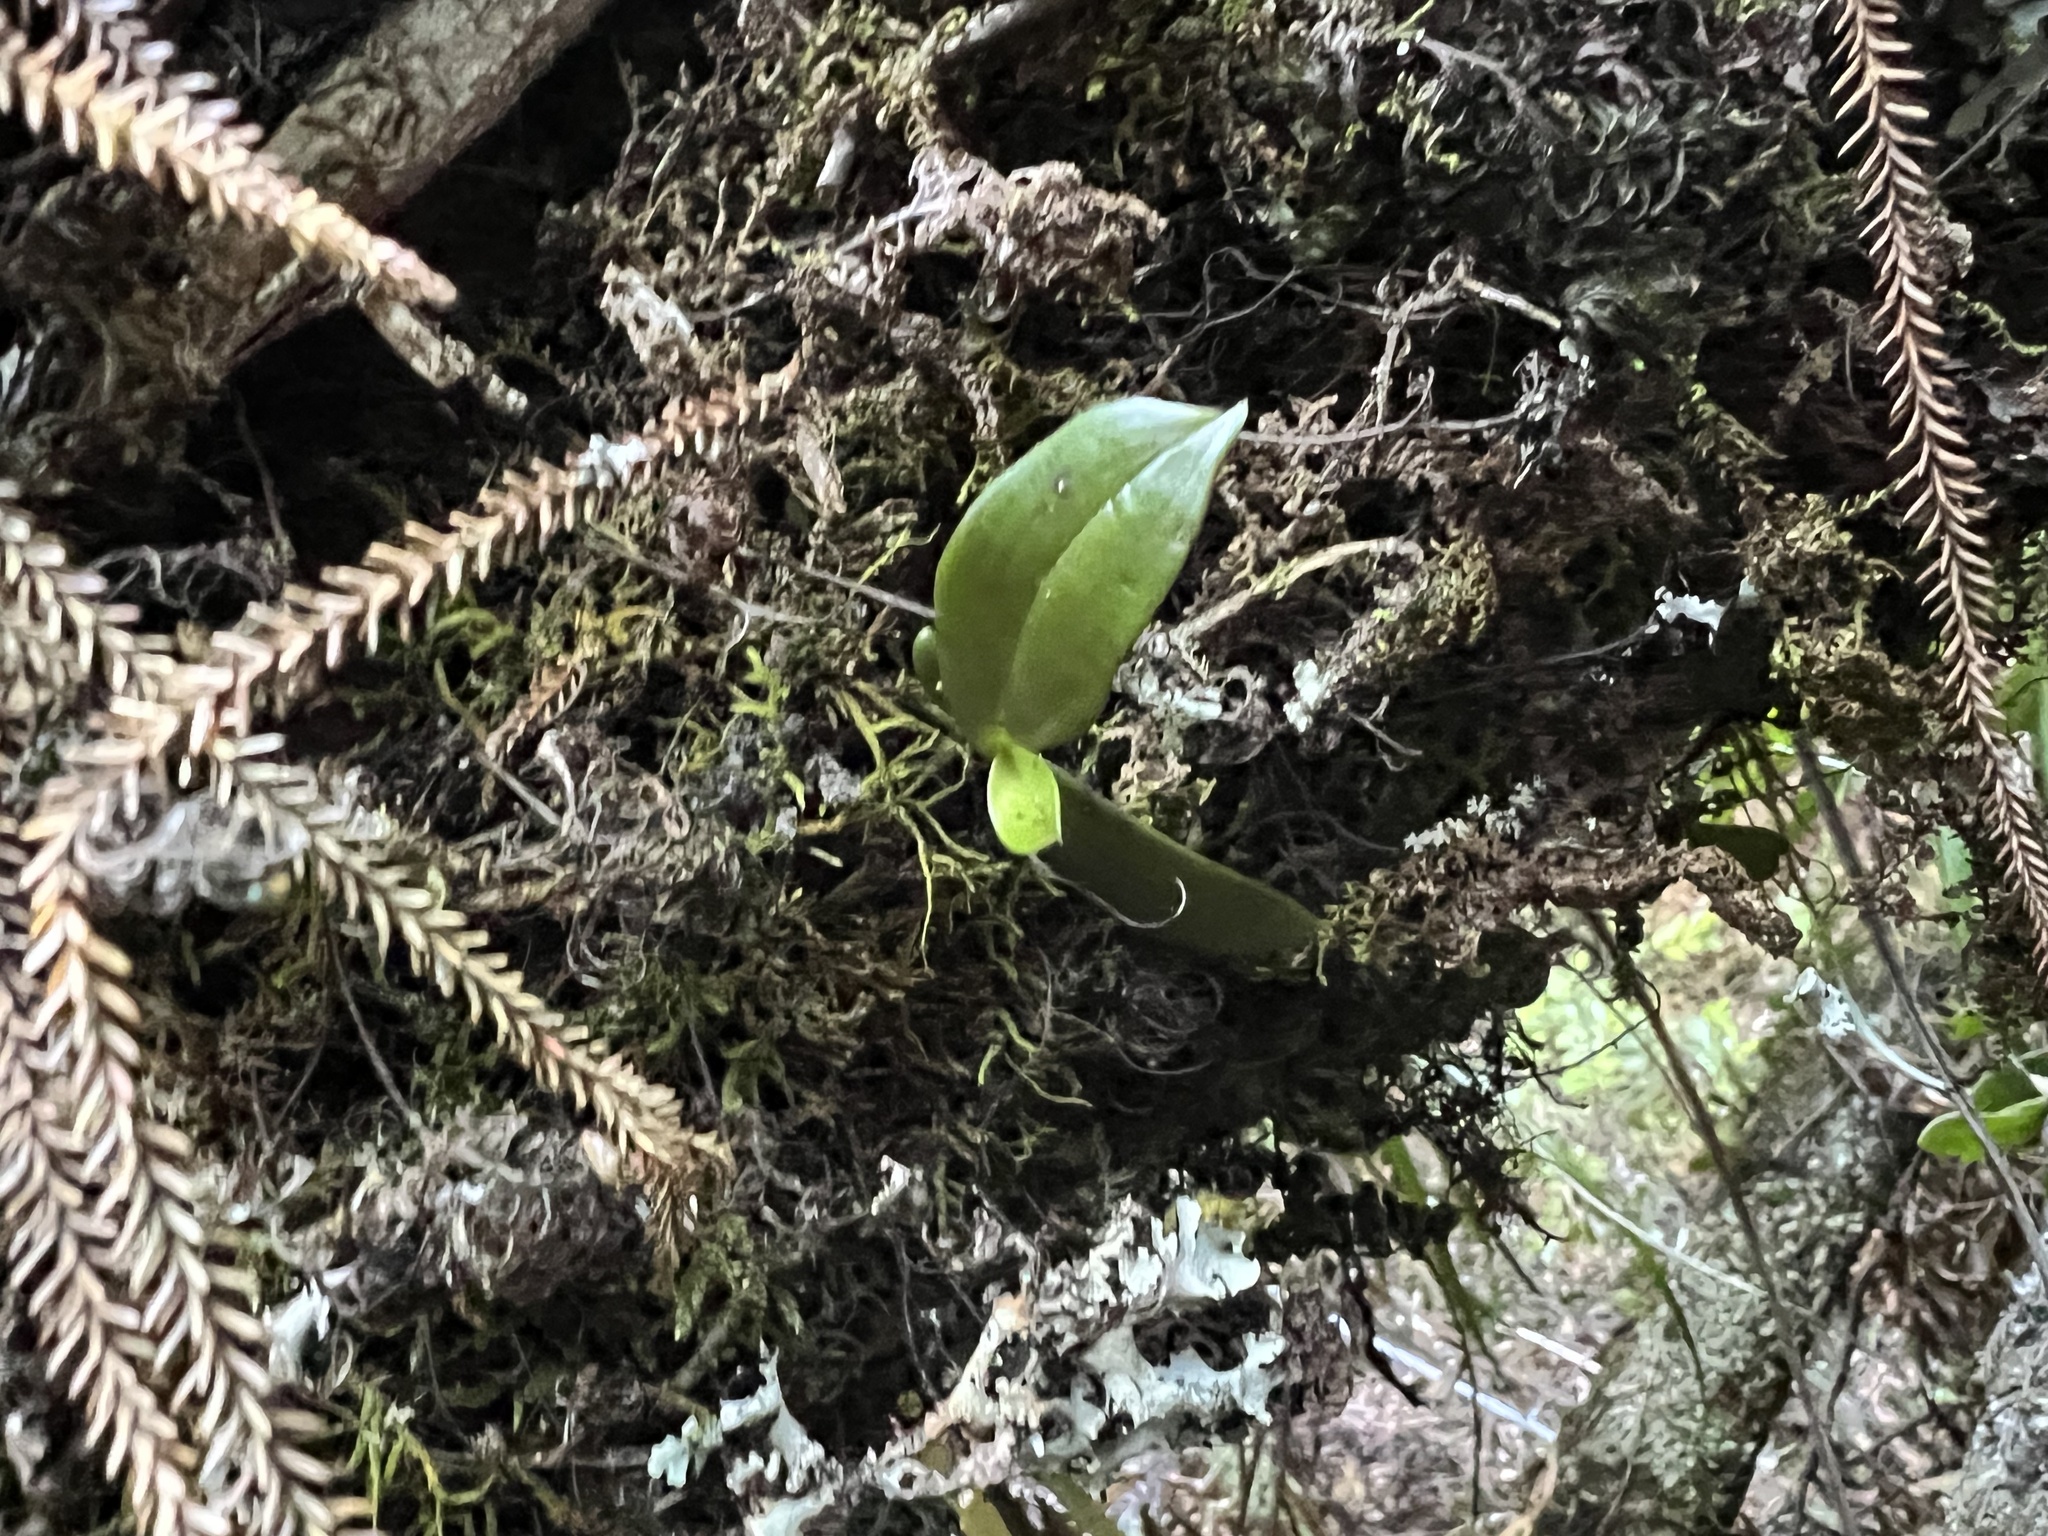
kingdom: Plantae
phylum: Tracheophyta
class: Liliopsida
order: Asparagales
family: Orchidaceae
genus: Drymoanthus
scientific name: Drymoanthus adversus
